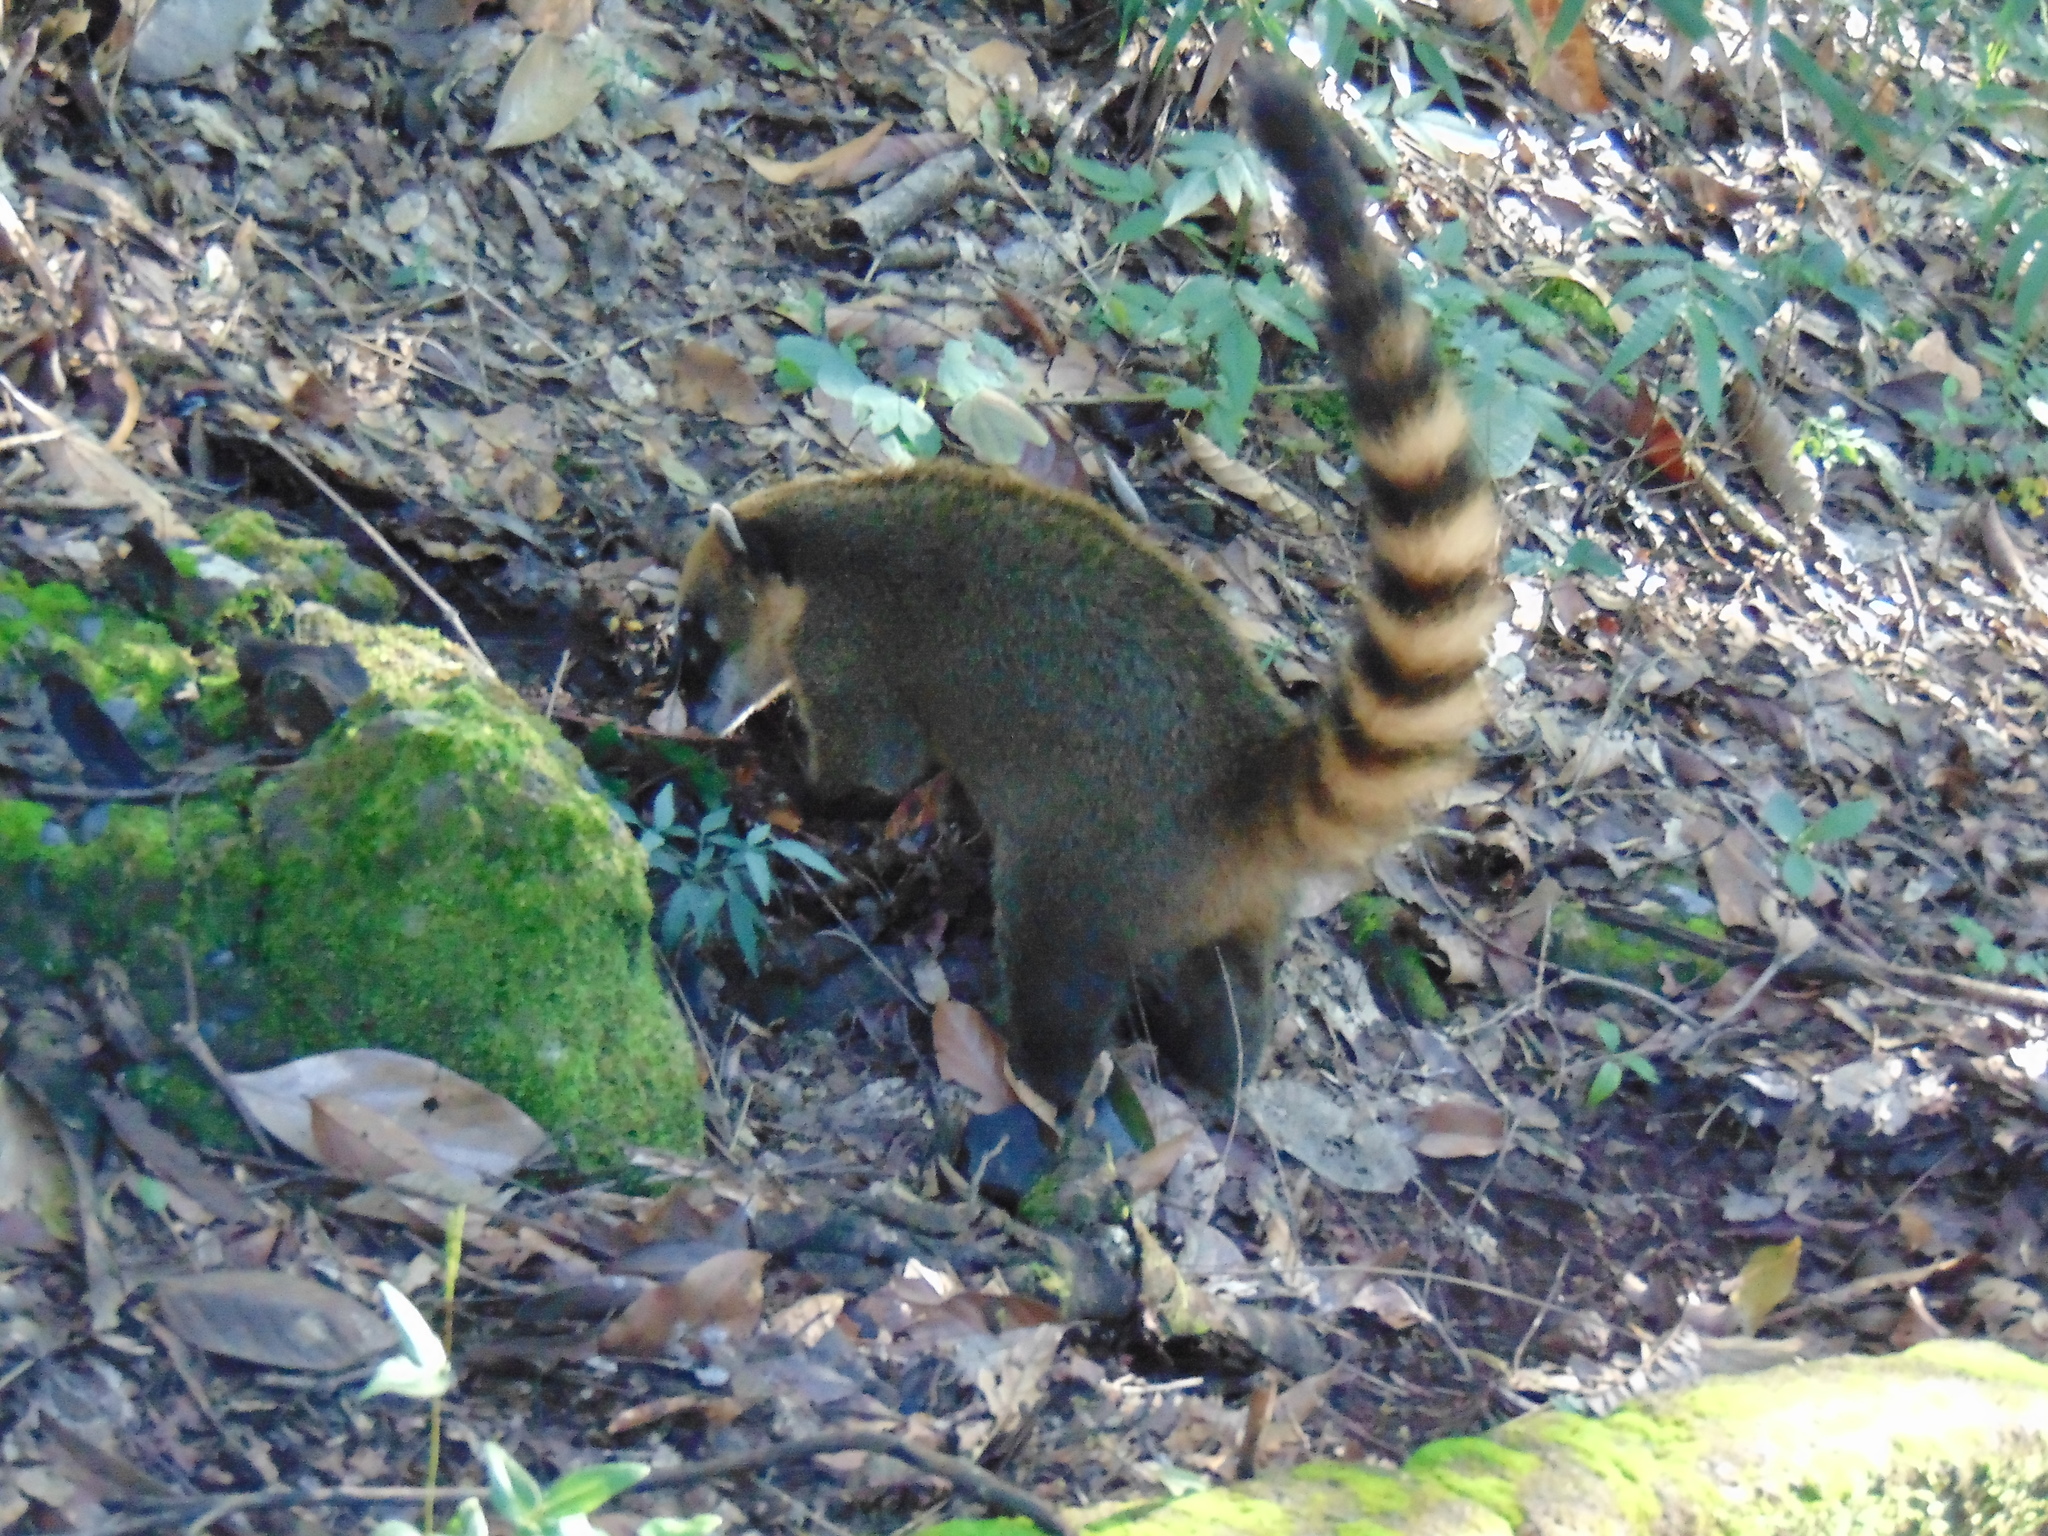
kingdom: Animalia
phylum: Chordata
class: Mammalia
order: Carnivora
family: Procyonidae
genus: Nasua
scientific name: Nasua nasua
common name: South american coati
